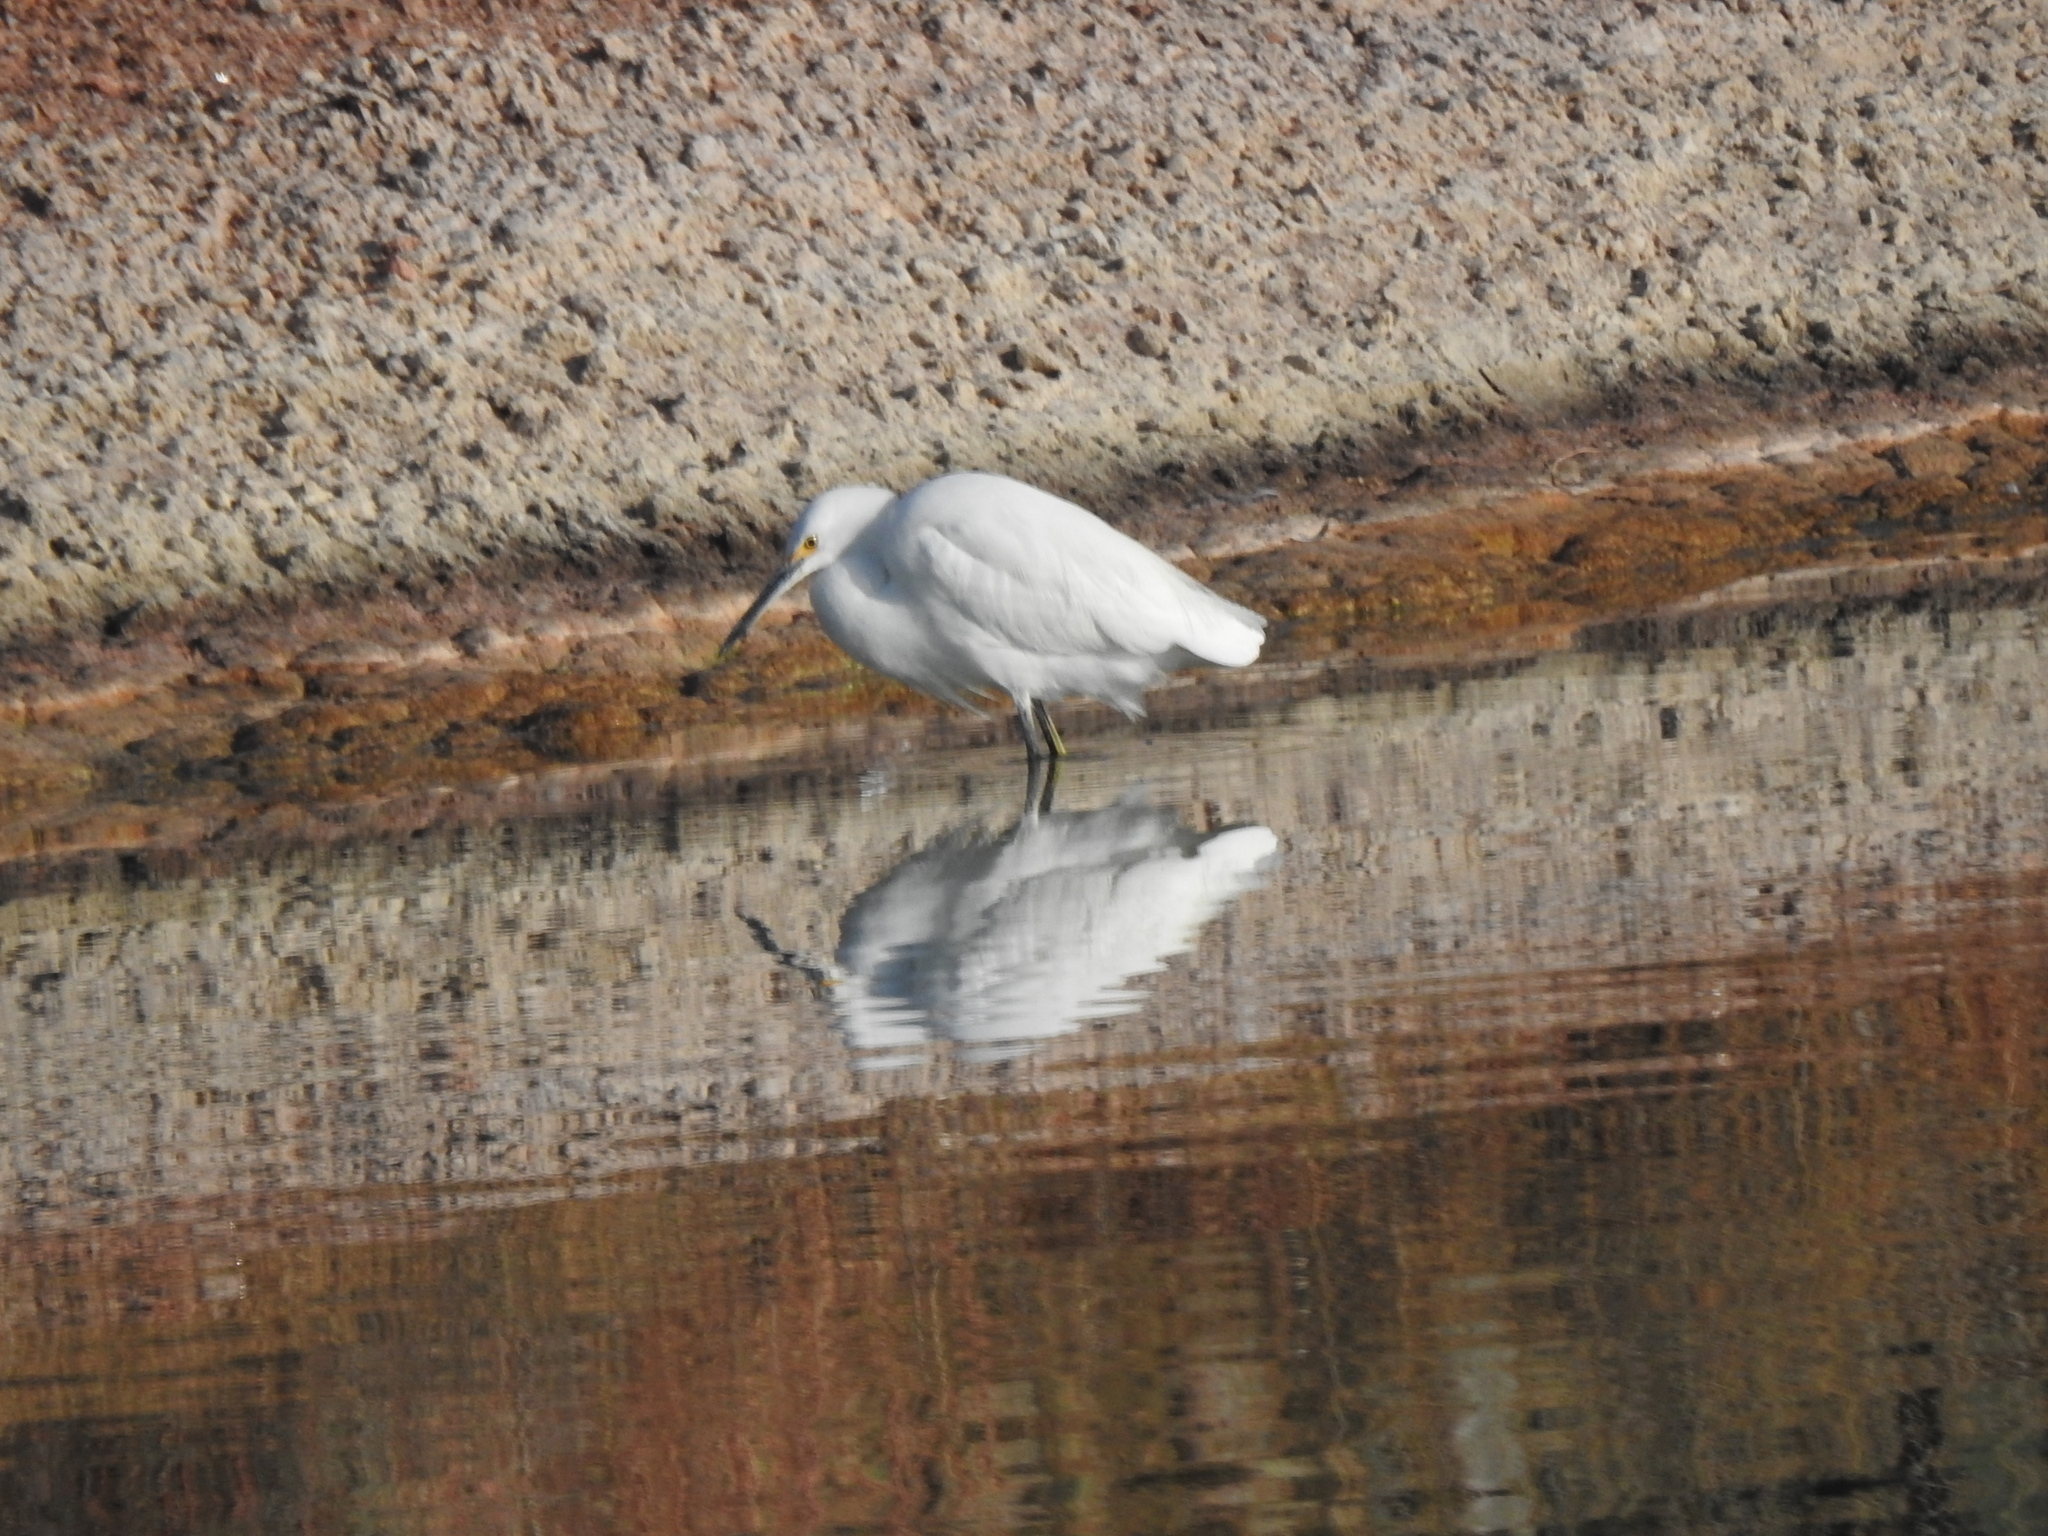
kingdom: Animalia
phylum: Chordata
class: Aves
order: Pelecaniformes
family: Ardeidae
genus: Egretta
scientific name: Egretta thula
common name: Snowy egret
